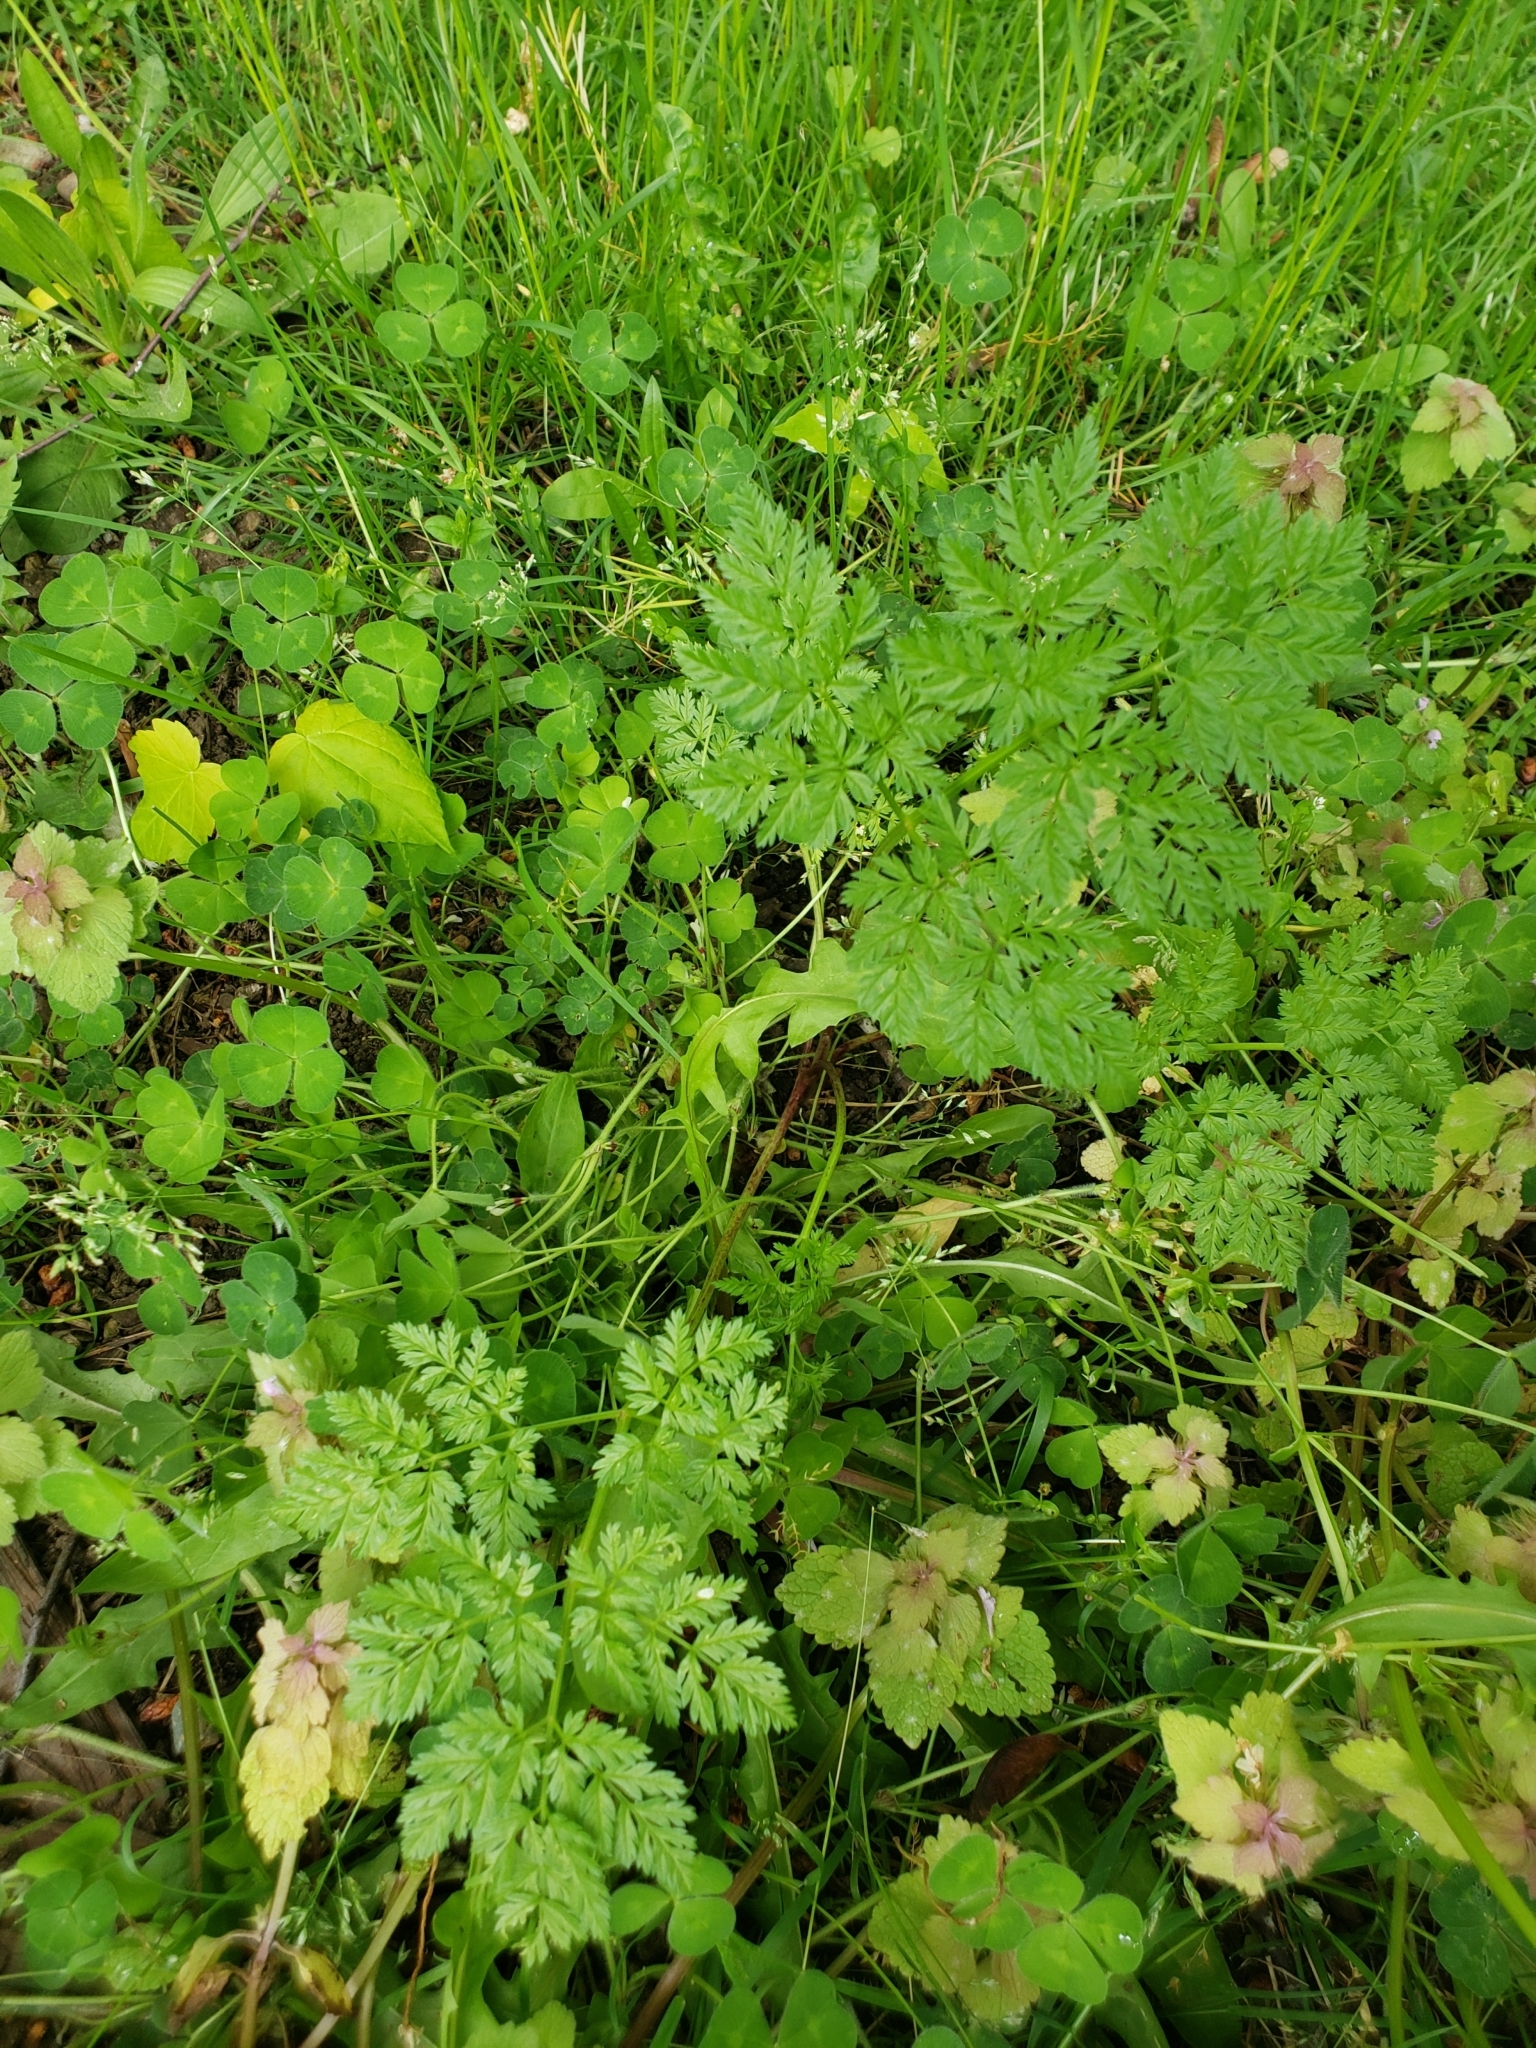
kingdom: Plantae
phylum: Tracheophyta
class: Magnoliopsida
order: Apiales
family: Apiaceae
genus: Conium
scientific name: Conium maculatum
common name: Hemlock
